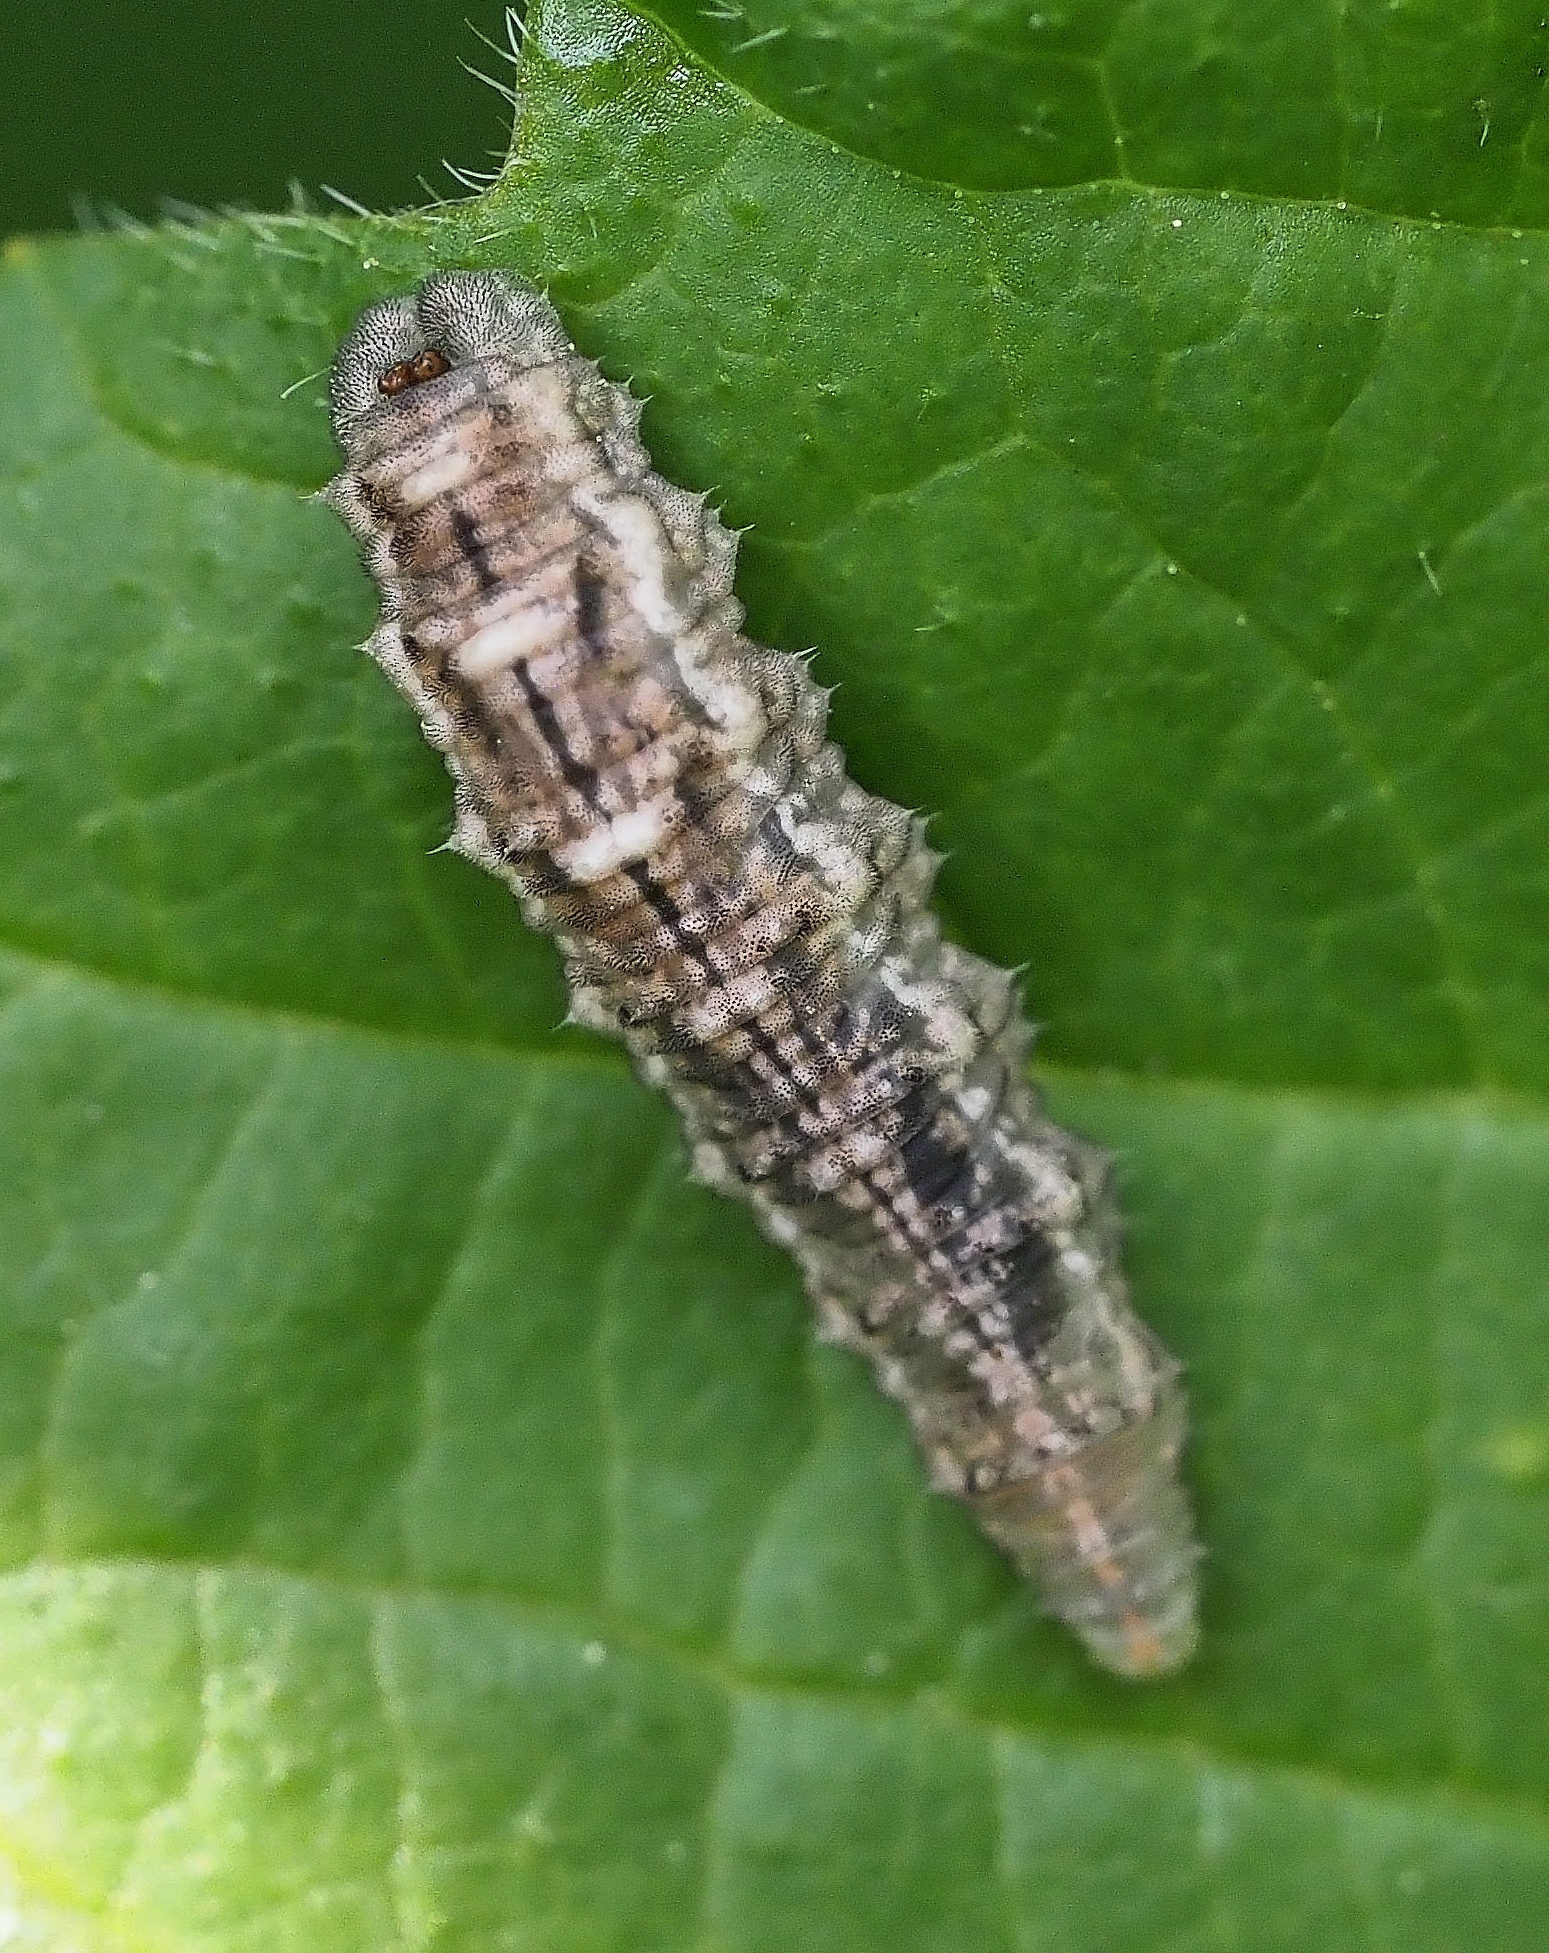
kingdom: Animalia
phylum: Arthropoda
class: Insecta
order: Diptera
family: Syrphidae
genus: Eupeodes
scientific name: Eupeodes
